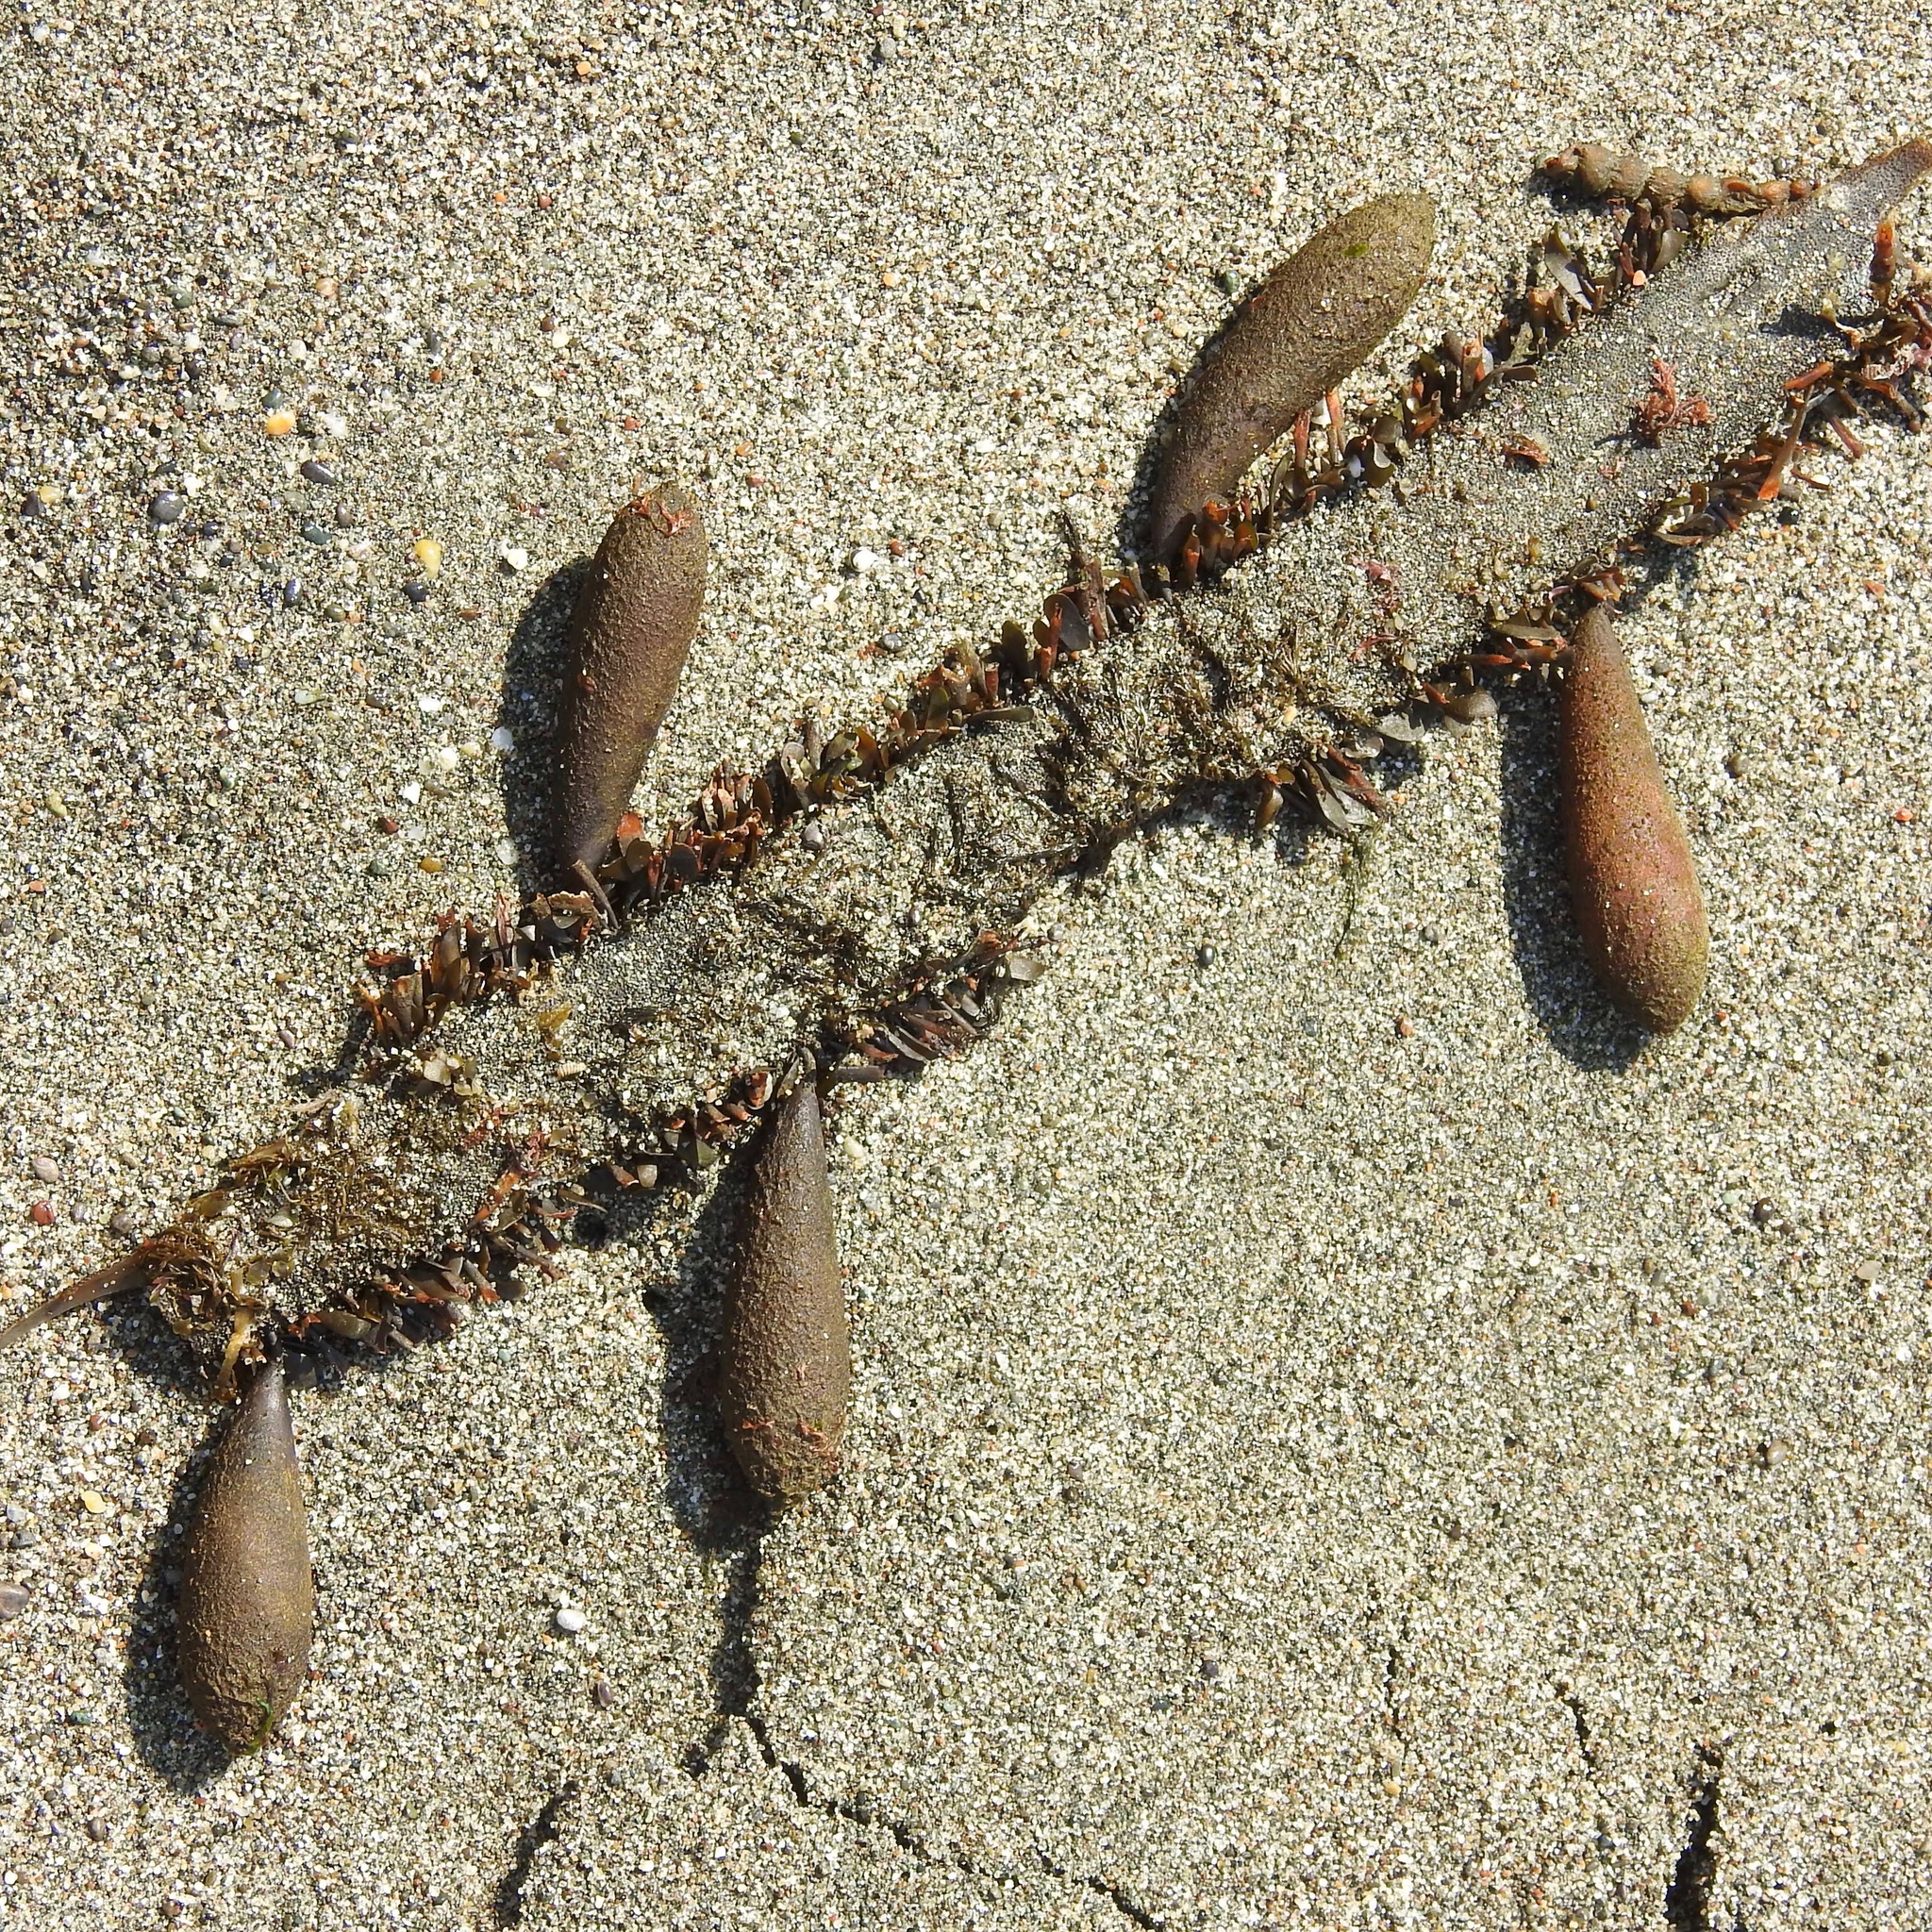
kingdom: Chromista
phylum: Ochrophyta
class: Phaeophyceae
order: Laminariales
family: Lessoniaceae
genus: Egregia
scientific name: Egregia menziesii
